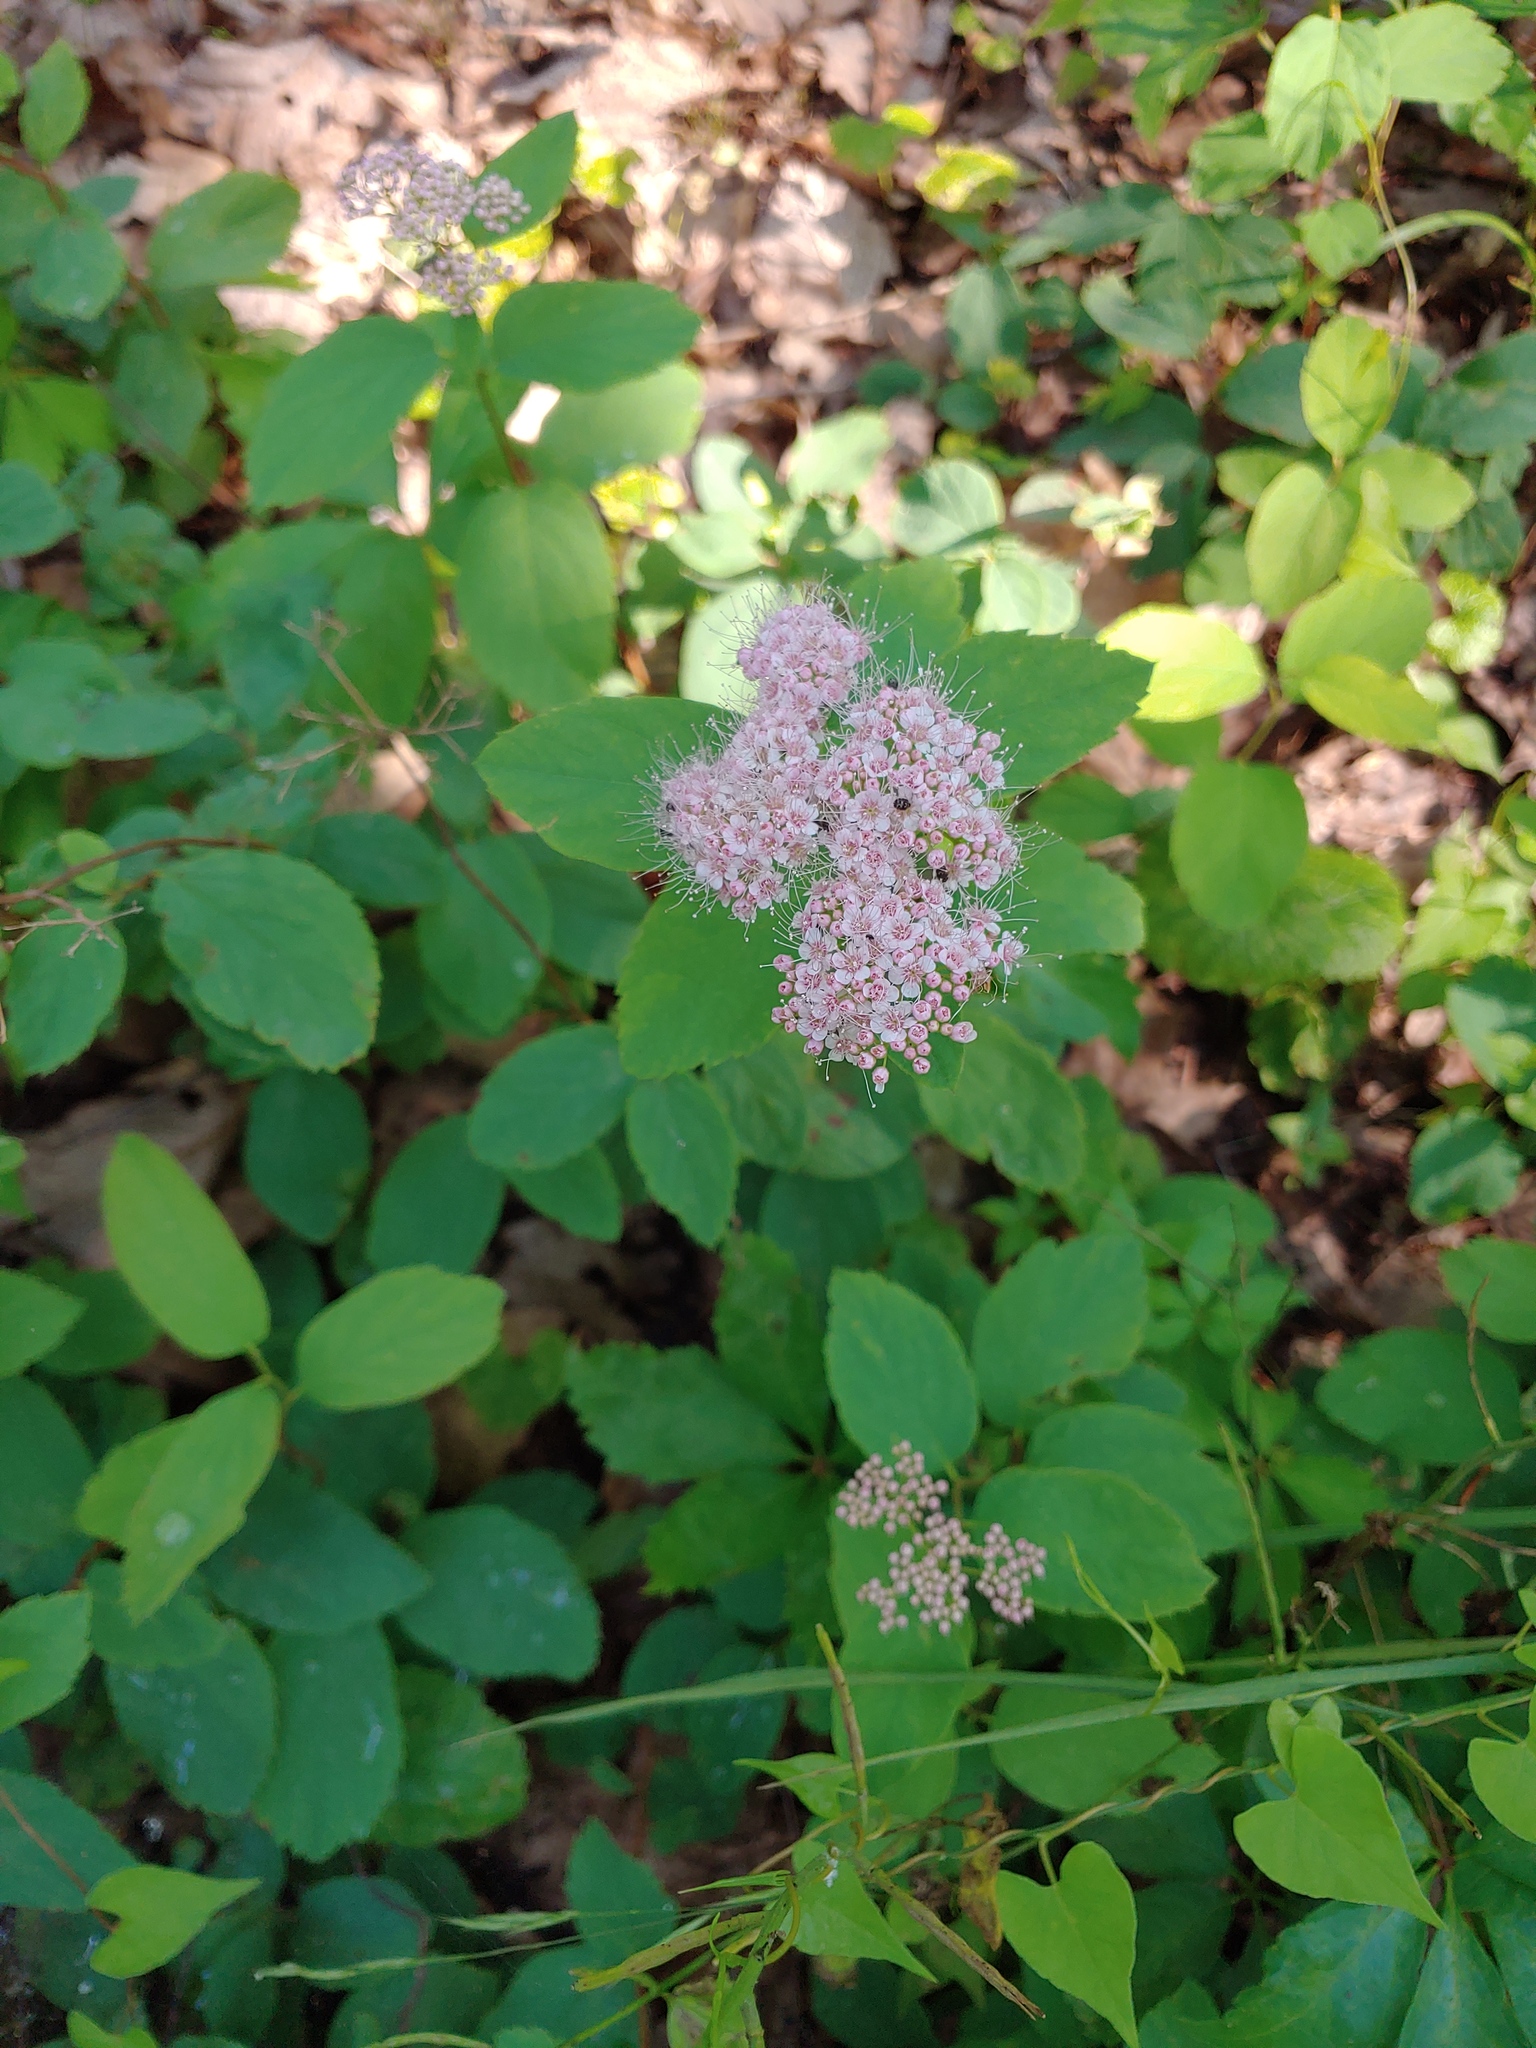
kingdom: Plantae
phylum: Tracheophyta
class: Magnoliopsida
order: Rosales
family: Rosaceae
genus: Spiraea
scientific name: Spiraea corymbosa
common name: Corymbed meadowsweet
